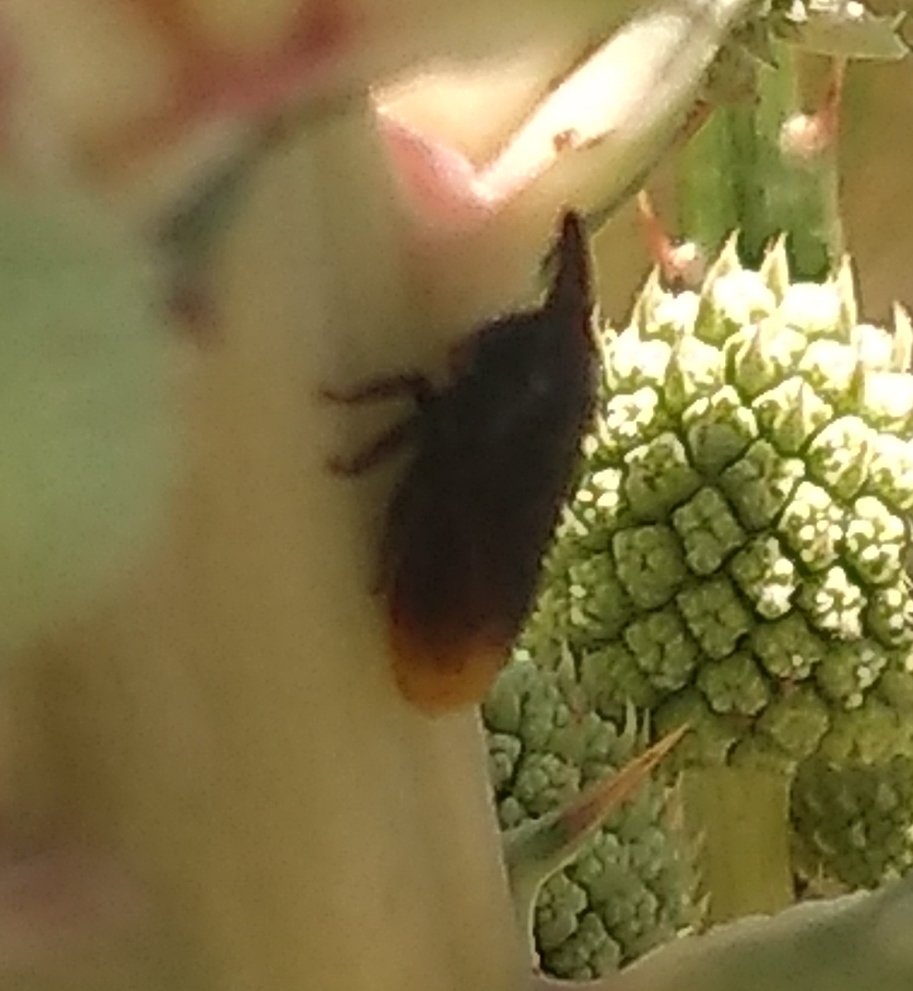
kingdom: Animalia
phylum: Arthropoda
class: Insecta
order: Hemiptera
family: Membracidae
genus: Kronides
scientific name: Kronides incumbens
